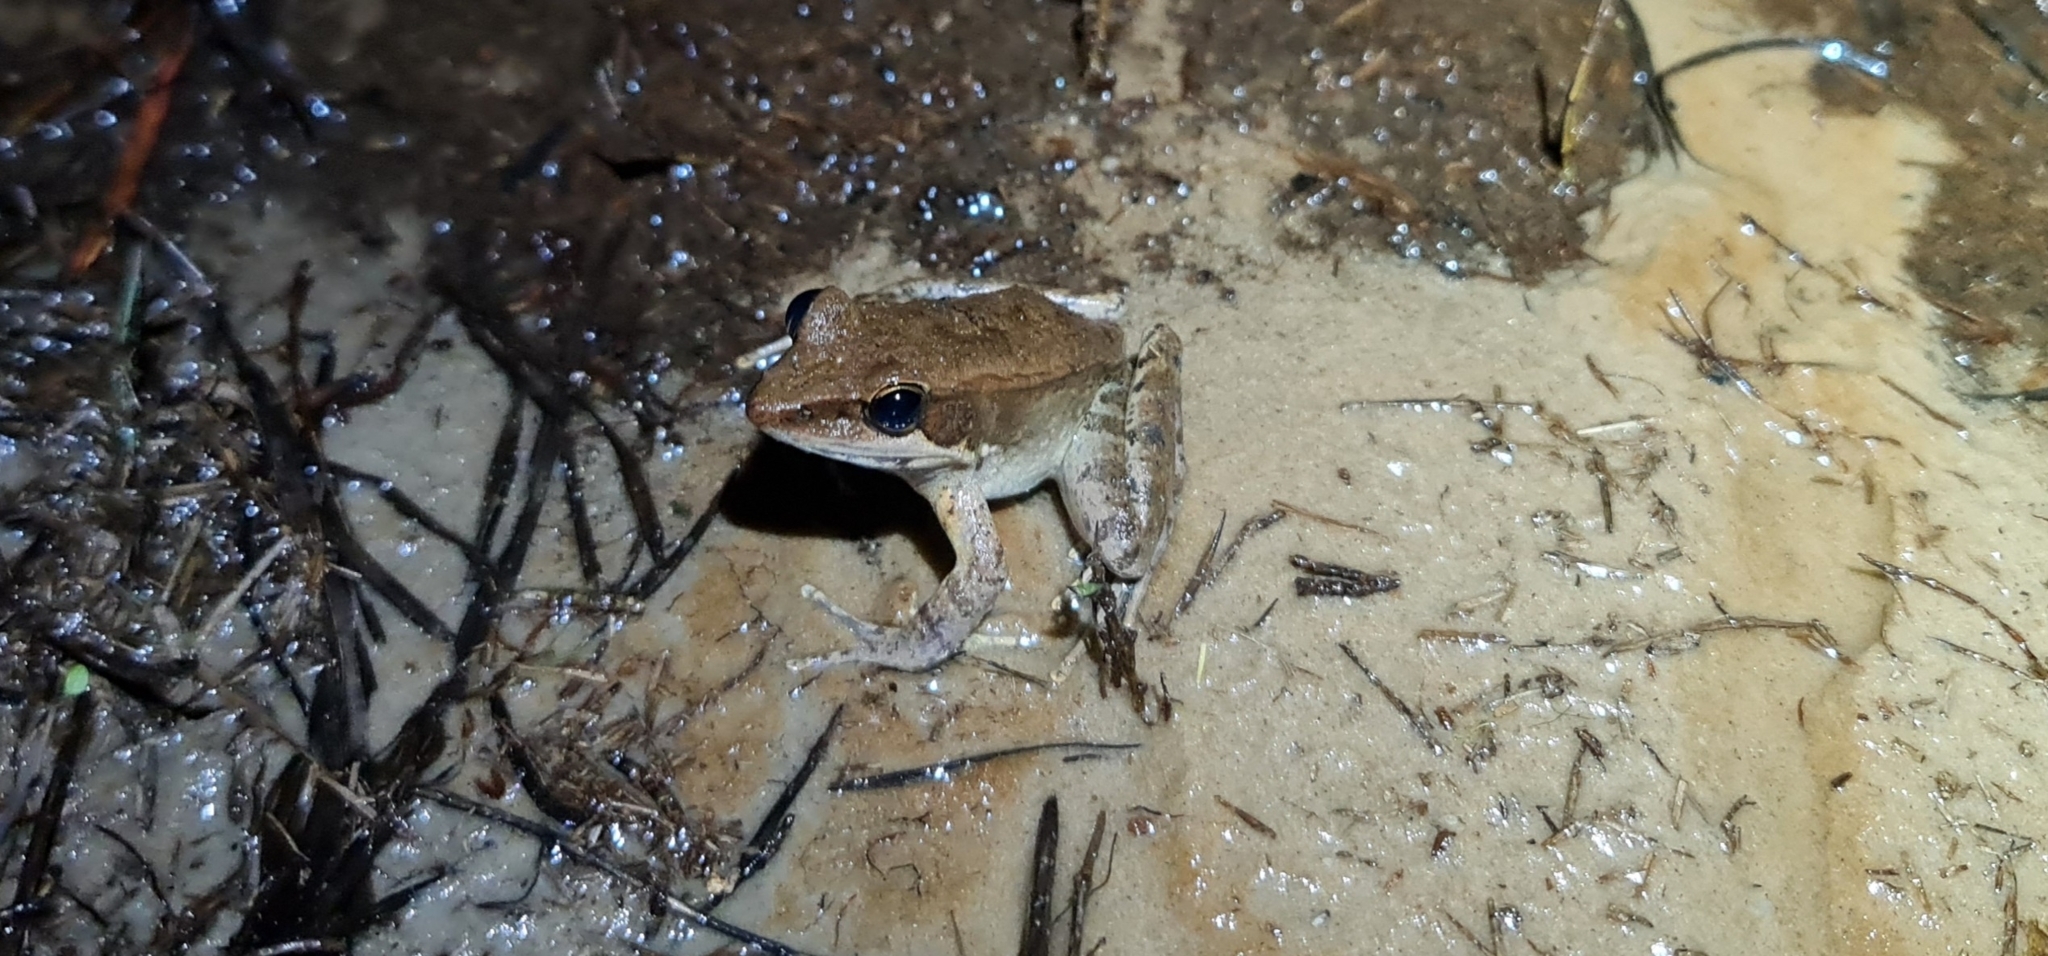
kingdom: Animalia
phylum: Chordata
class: Amphibia
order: Anura
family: Ranidae
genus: Papurana
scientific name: Papurana daemeli
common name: Arhem rana
